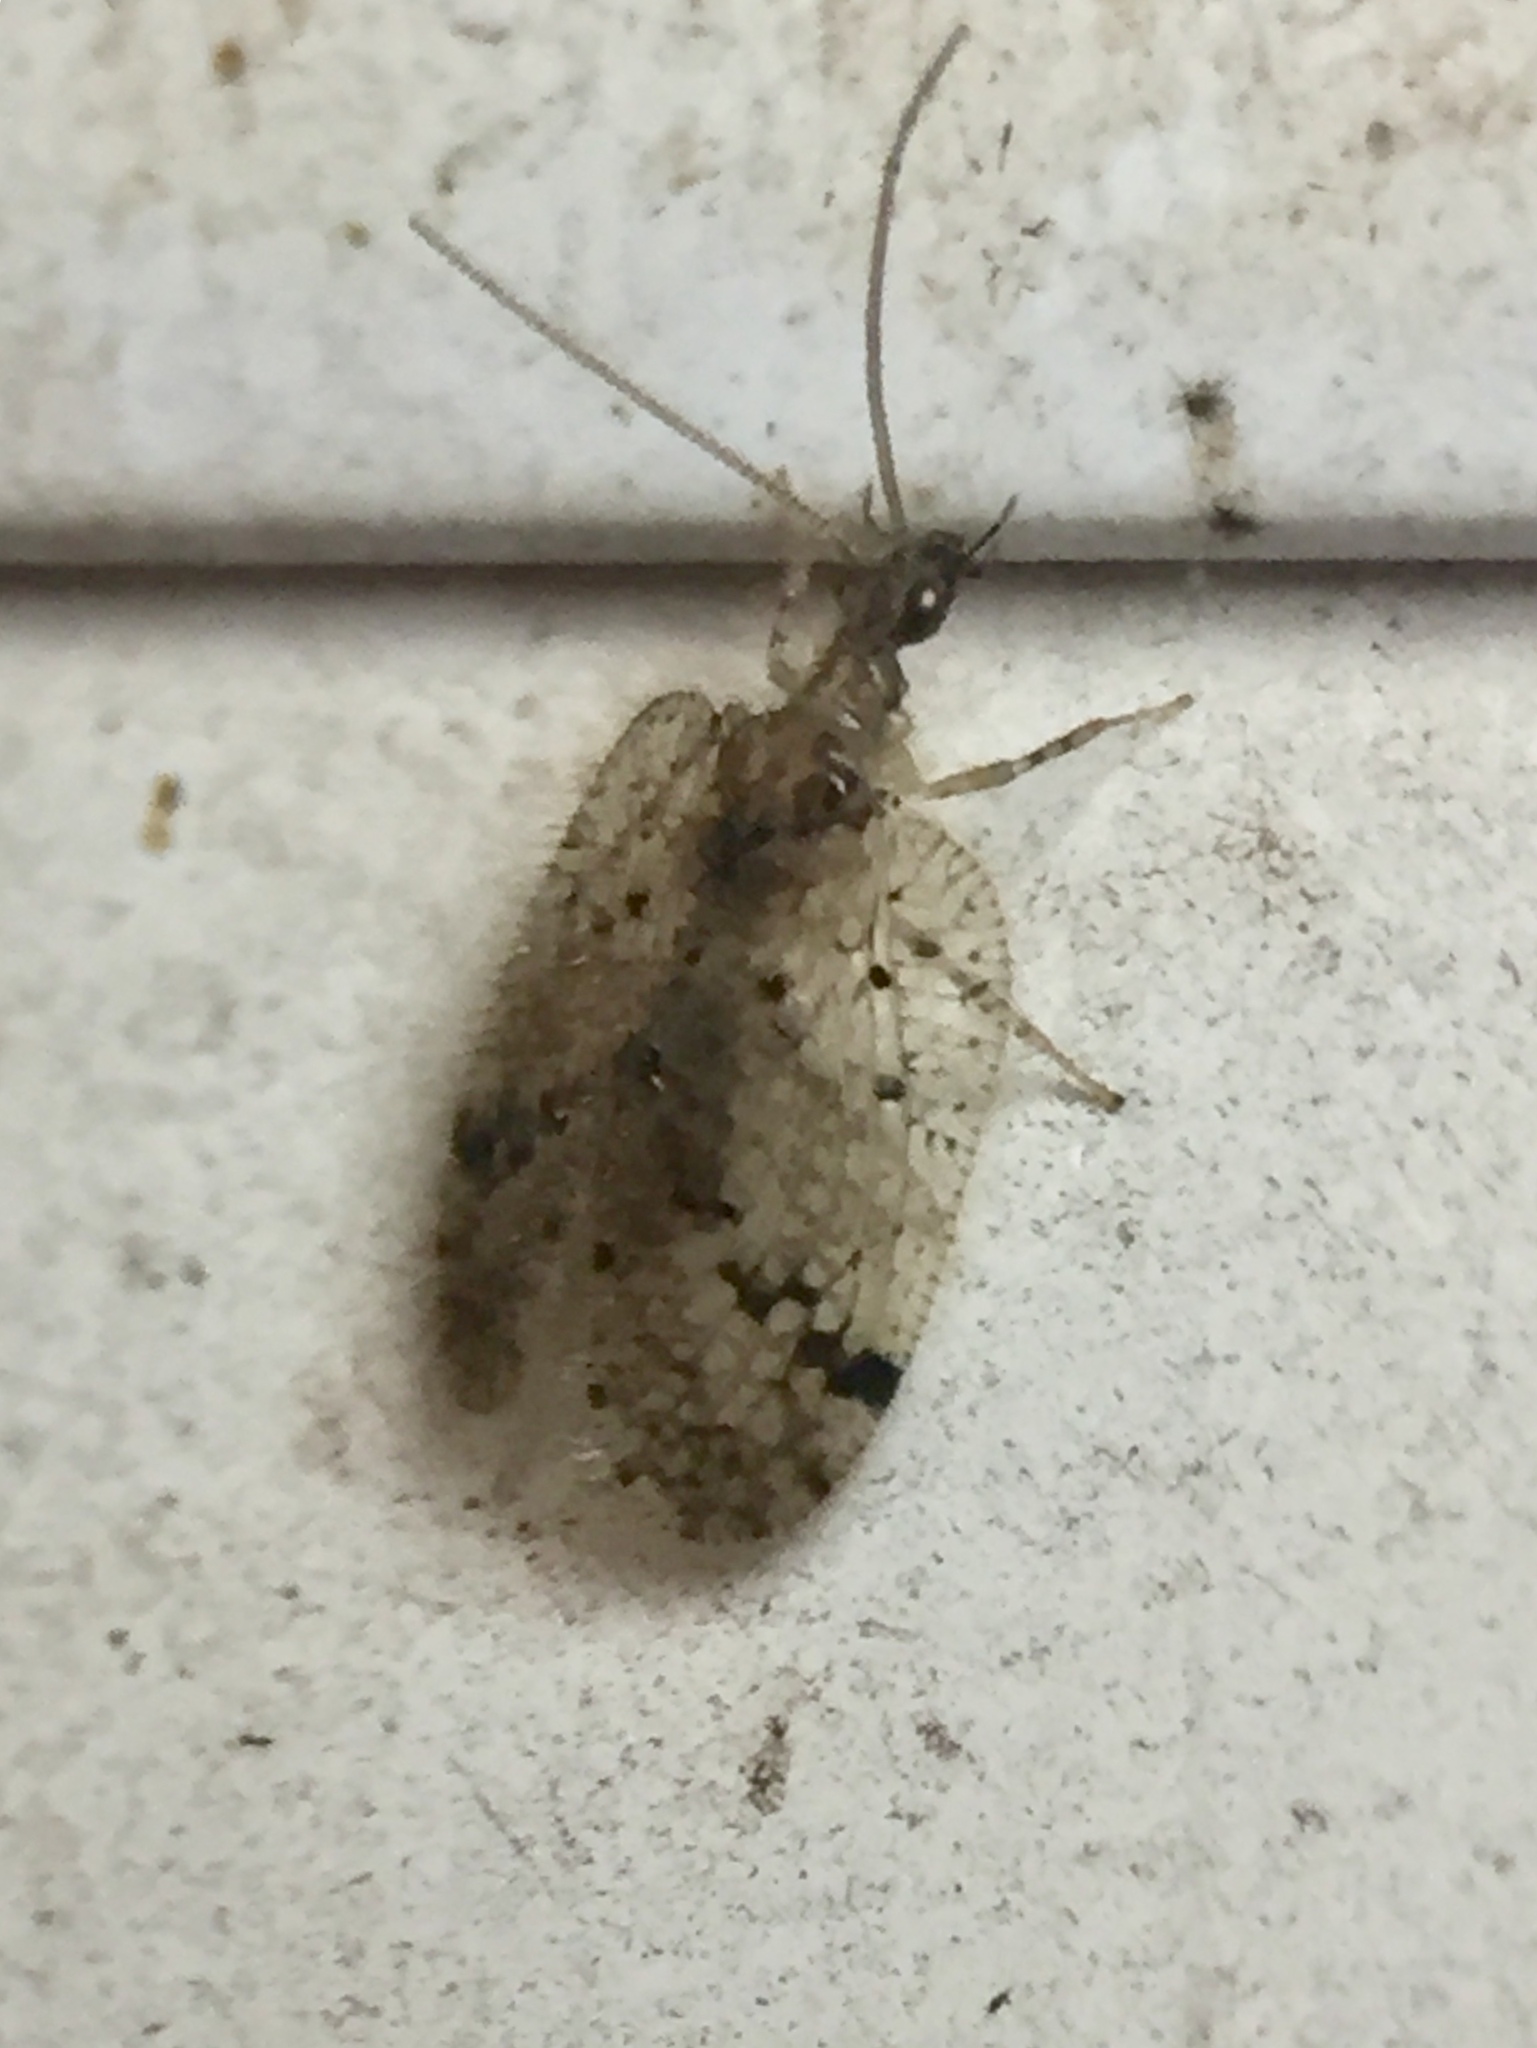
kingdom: Animalia
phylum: Arthropoda
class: Insecta
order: Neuroptera
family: Hemerobiidae
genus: Psectra
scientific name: Psectra nakaharai
